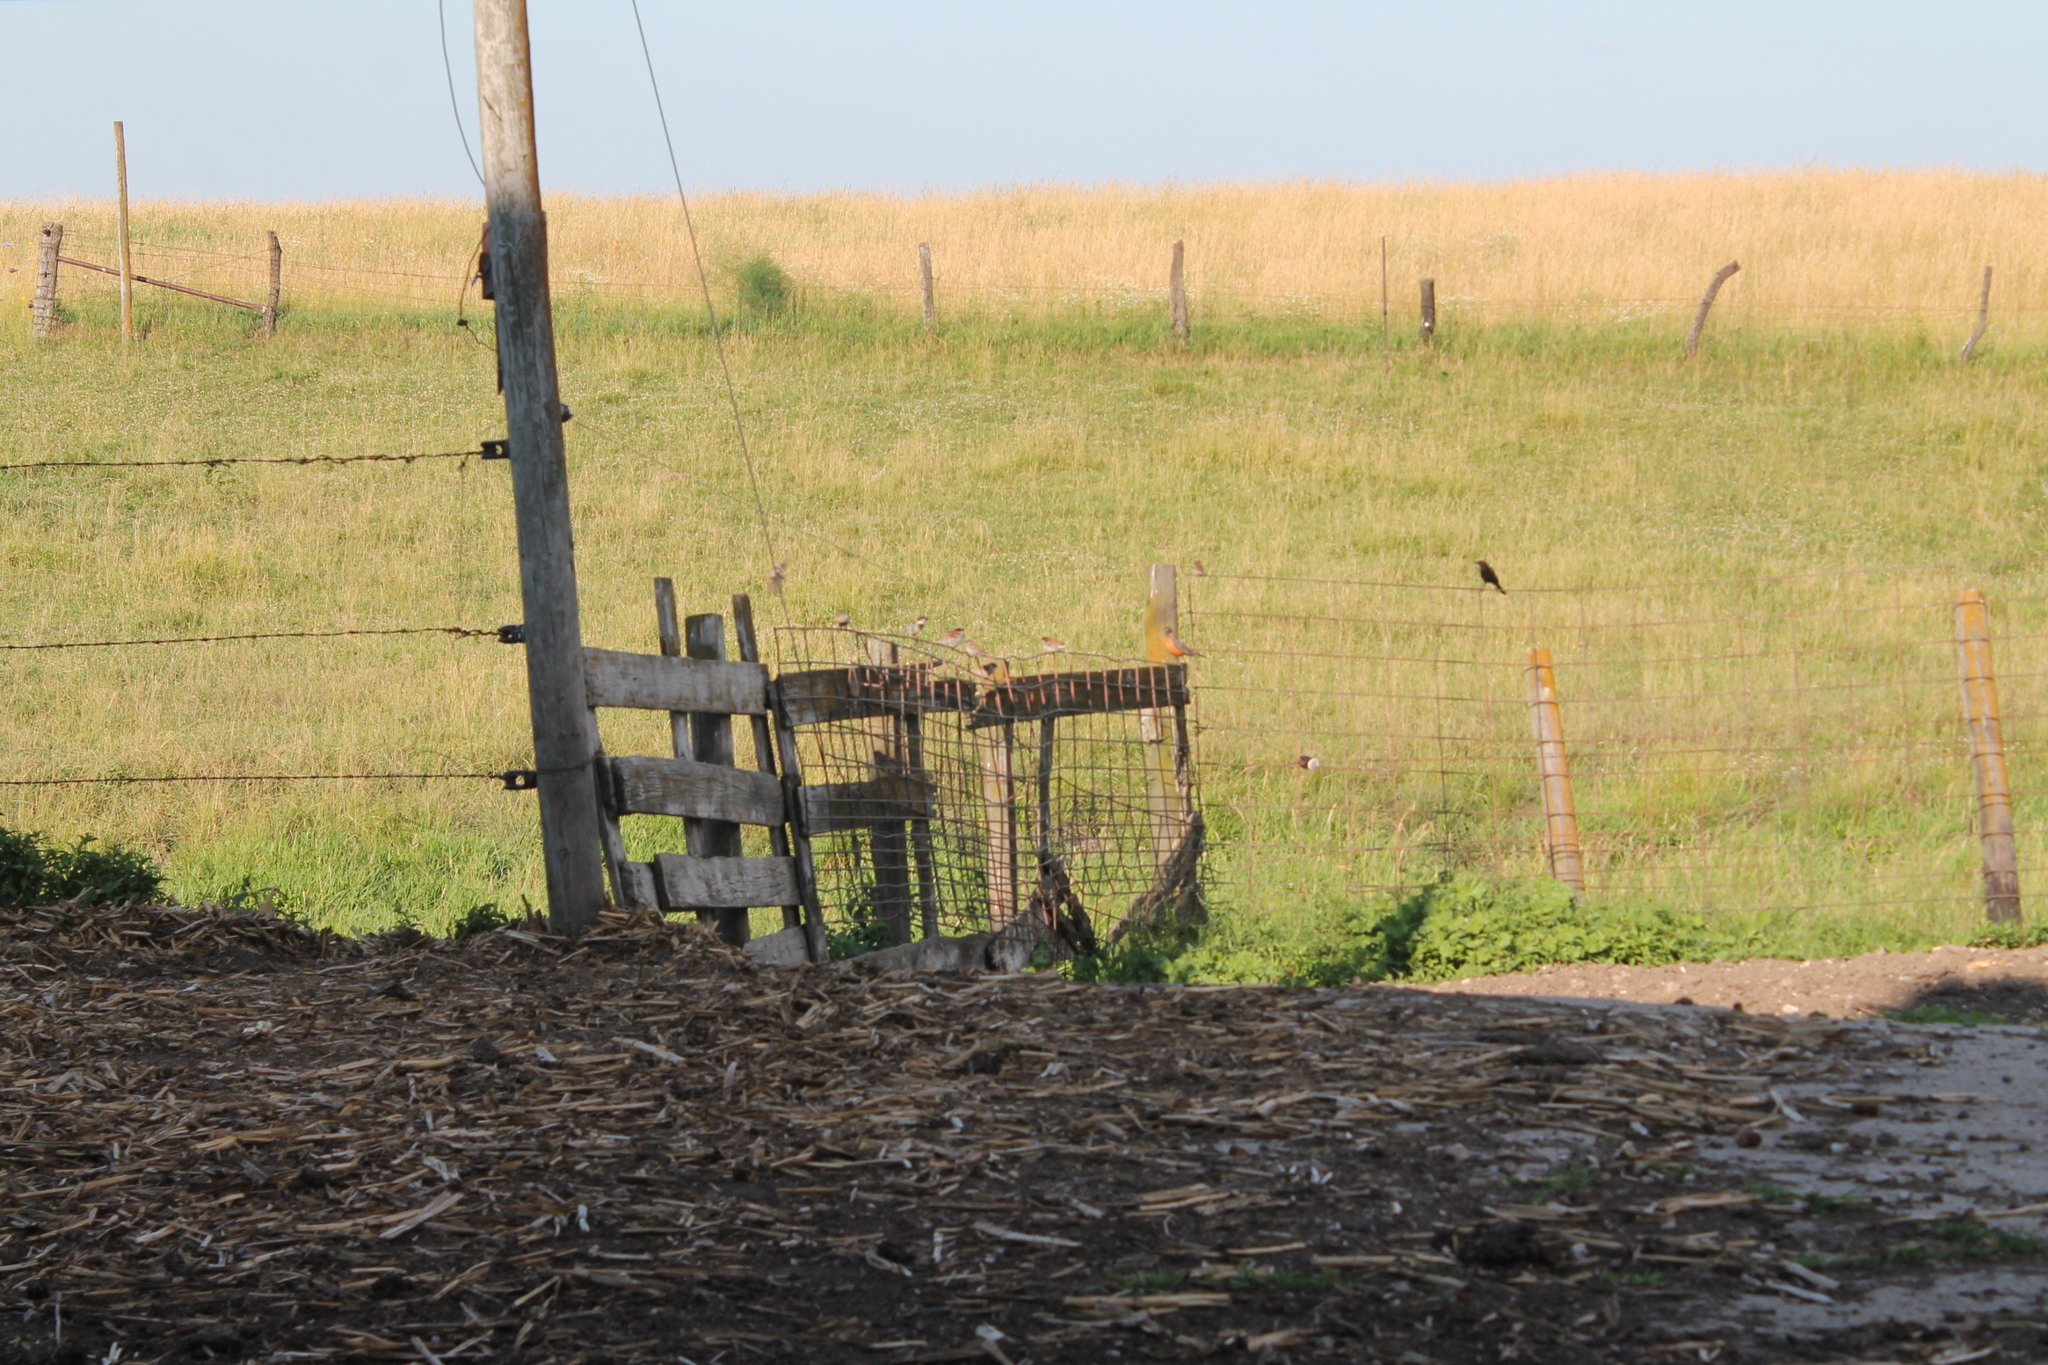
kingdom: Animalia
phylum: Chordata
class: Aves
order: Passeriformes
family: Passeridae
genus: Passer
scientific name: Passer domesticus
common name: House sparrow
